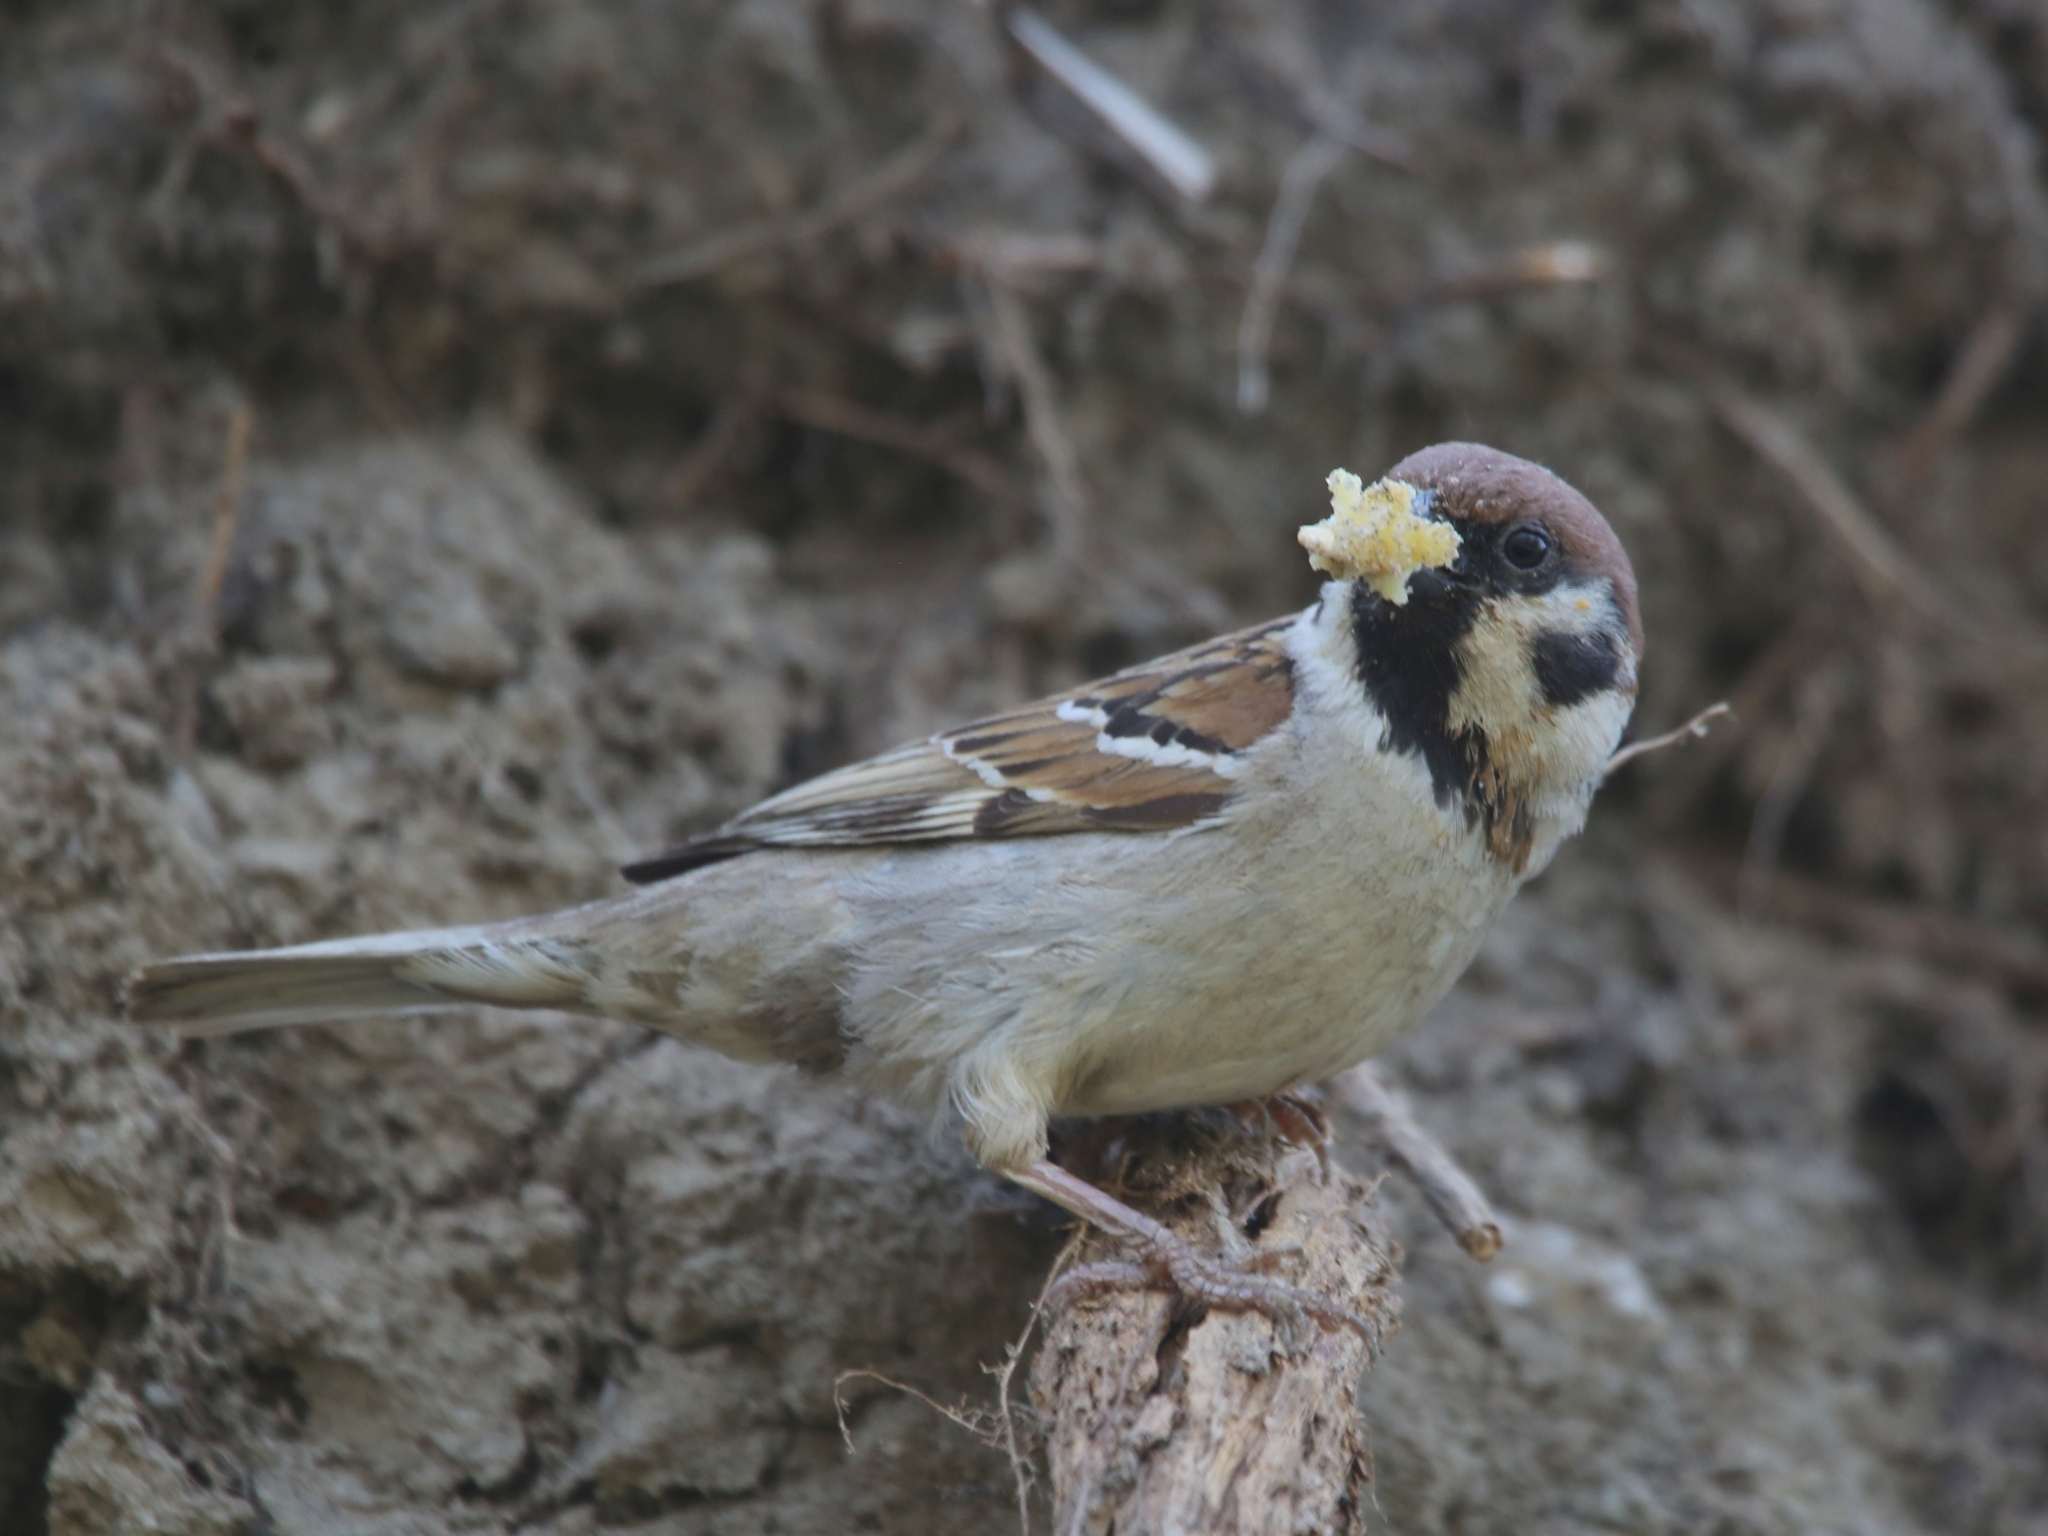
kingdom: Animalia
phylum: Chordata
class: Aves
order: Passeriformes
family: Passeridae
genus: Passer
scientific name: Passer montanus
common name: Eurasian tree sparrow
